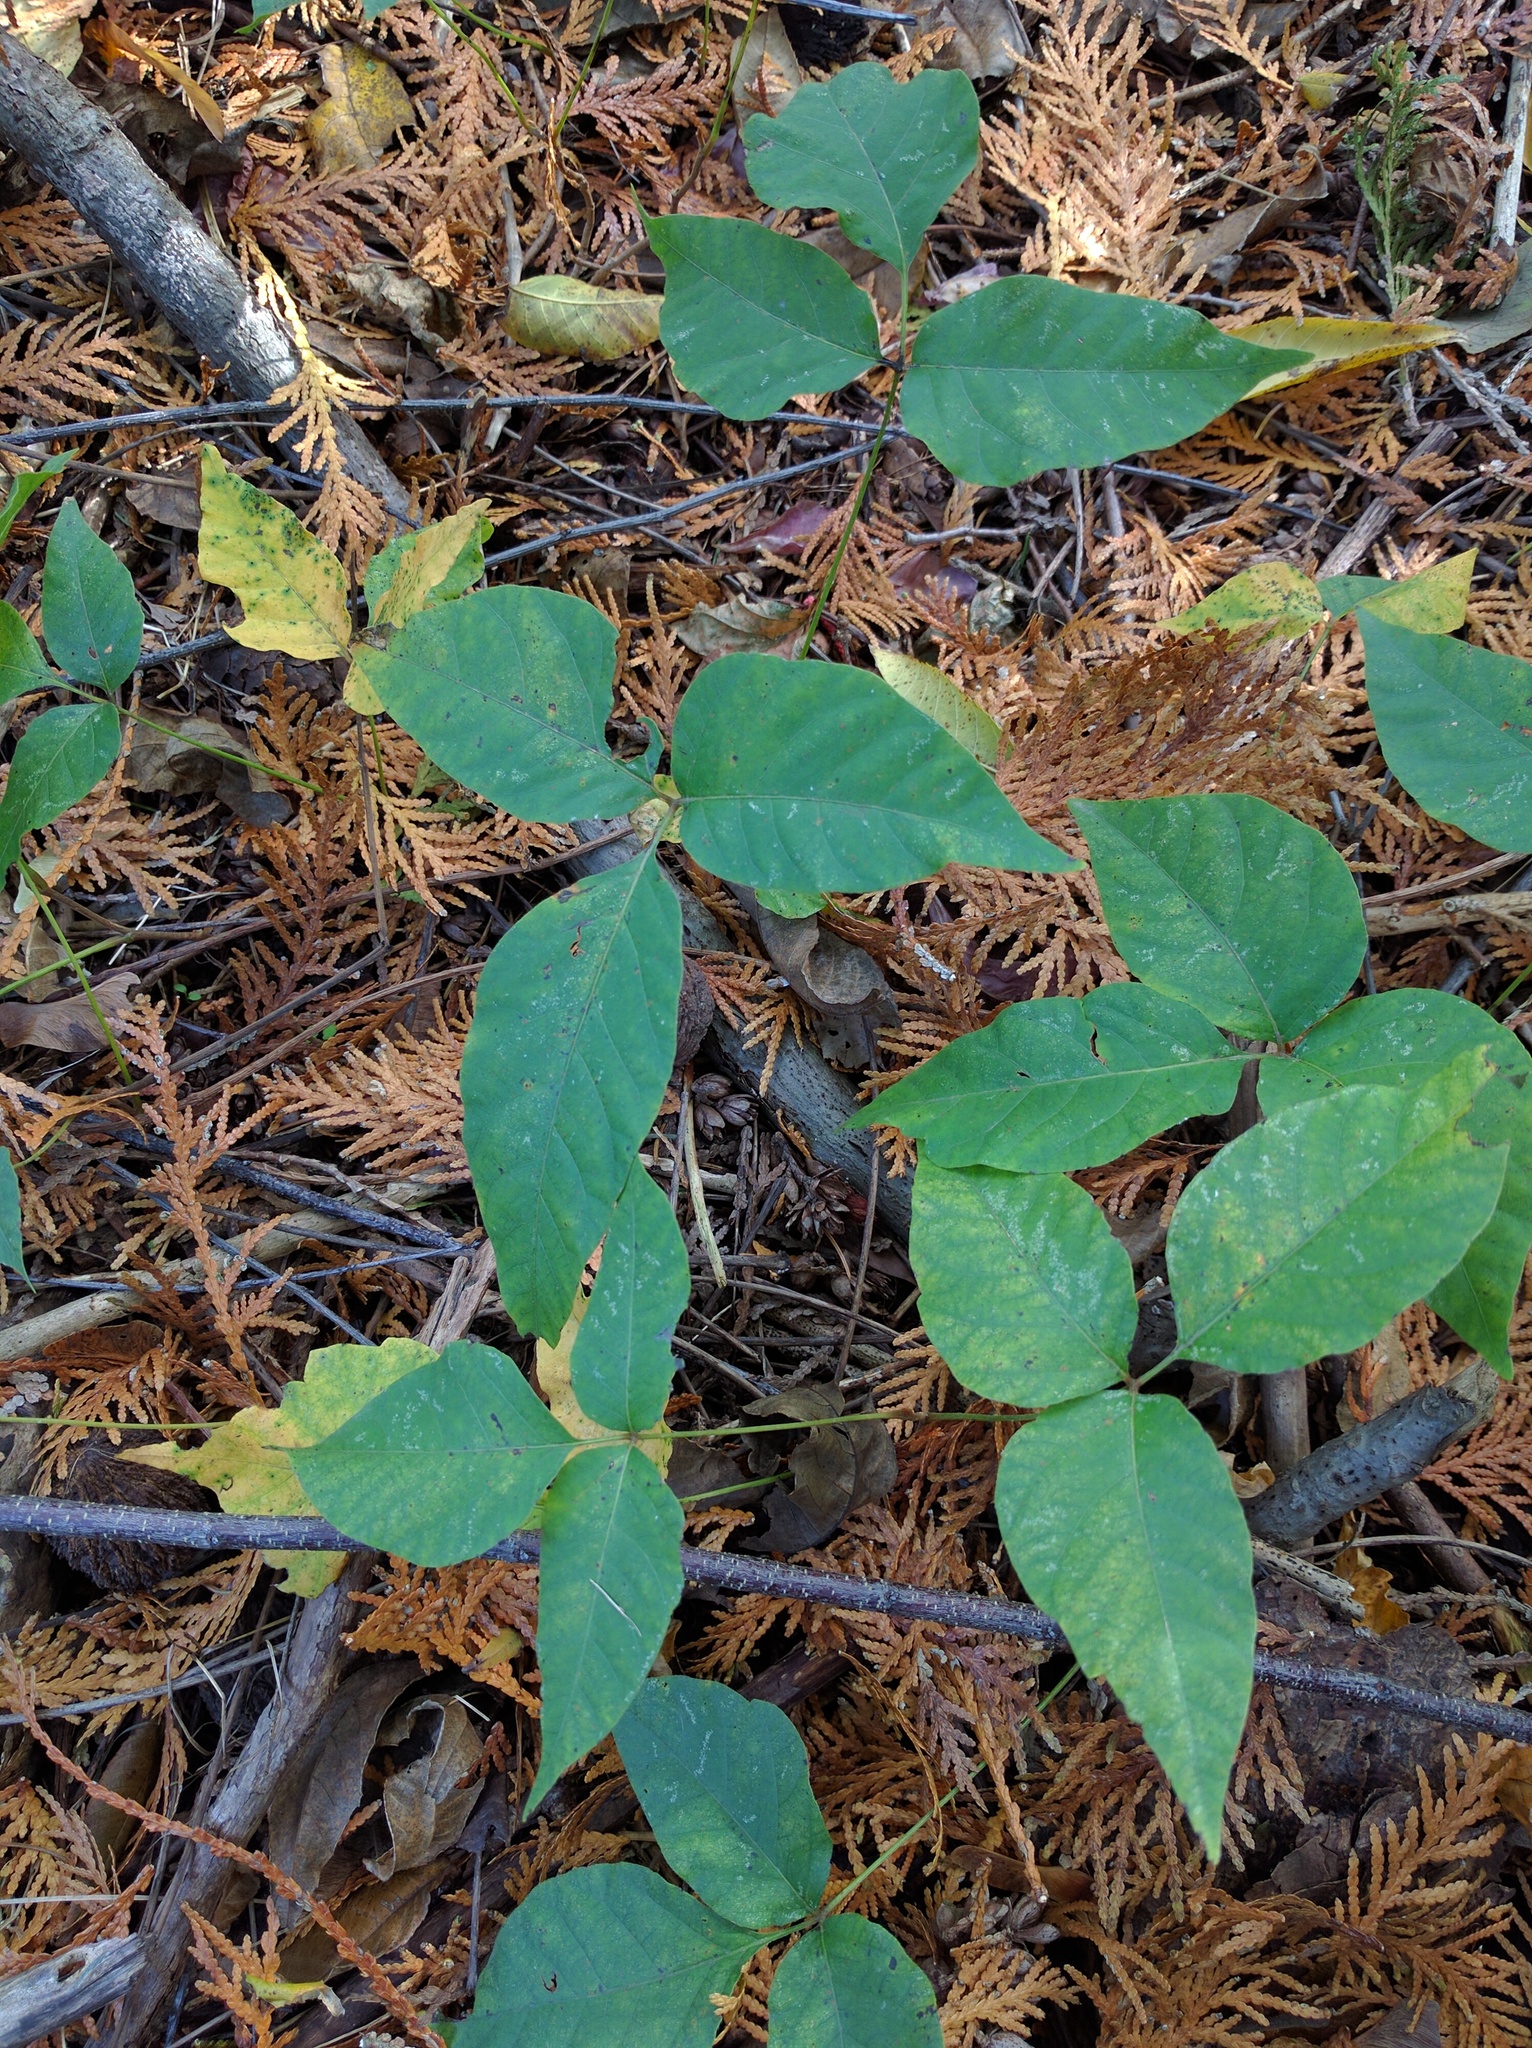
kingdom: Plantae
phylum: Tracheophyta
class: Magnoliopsida
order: Sapindales
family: Anacardiaceae
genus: Toxicodendron
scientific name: Toxicodendron radicans
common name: Poison ivy
